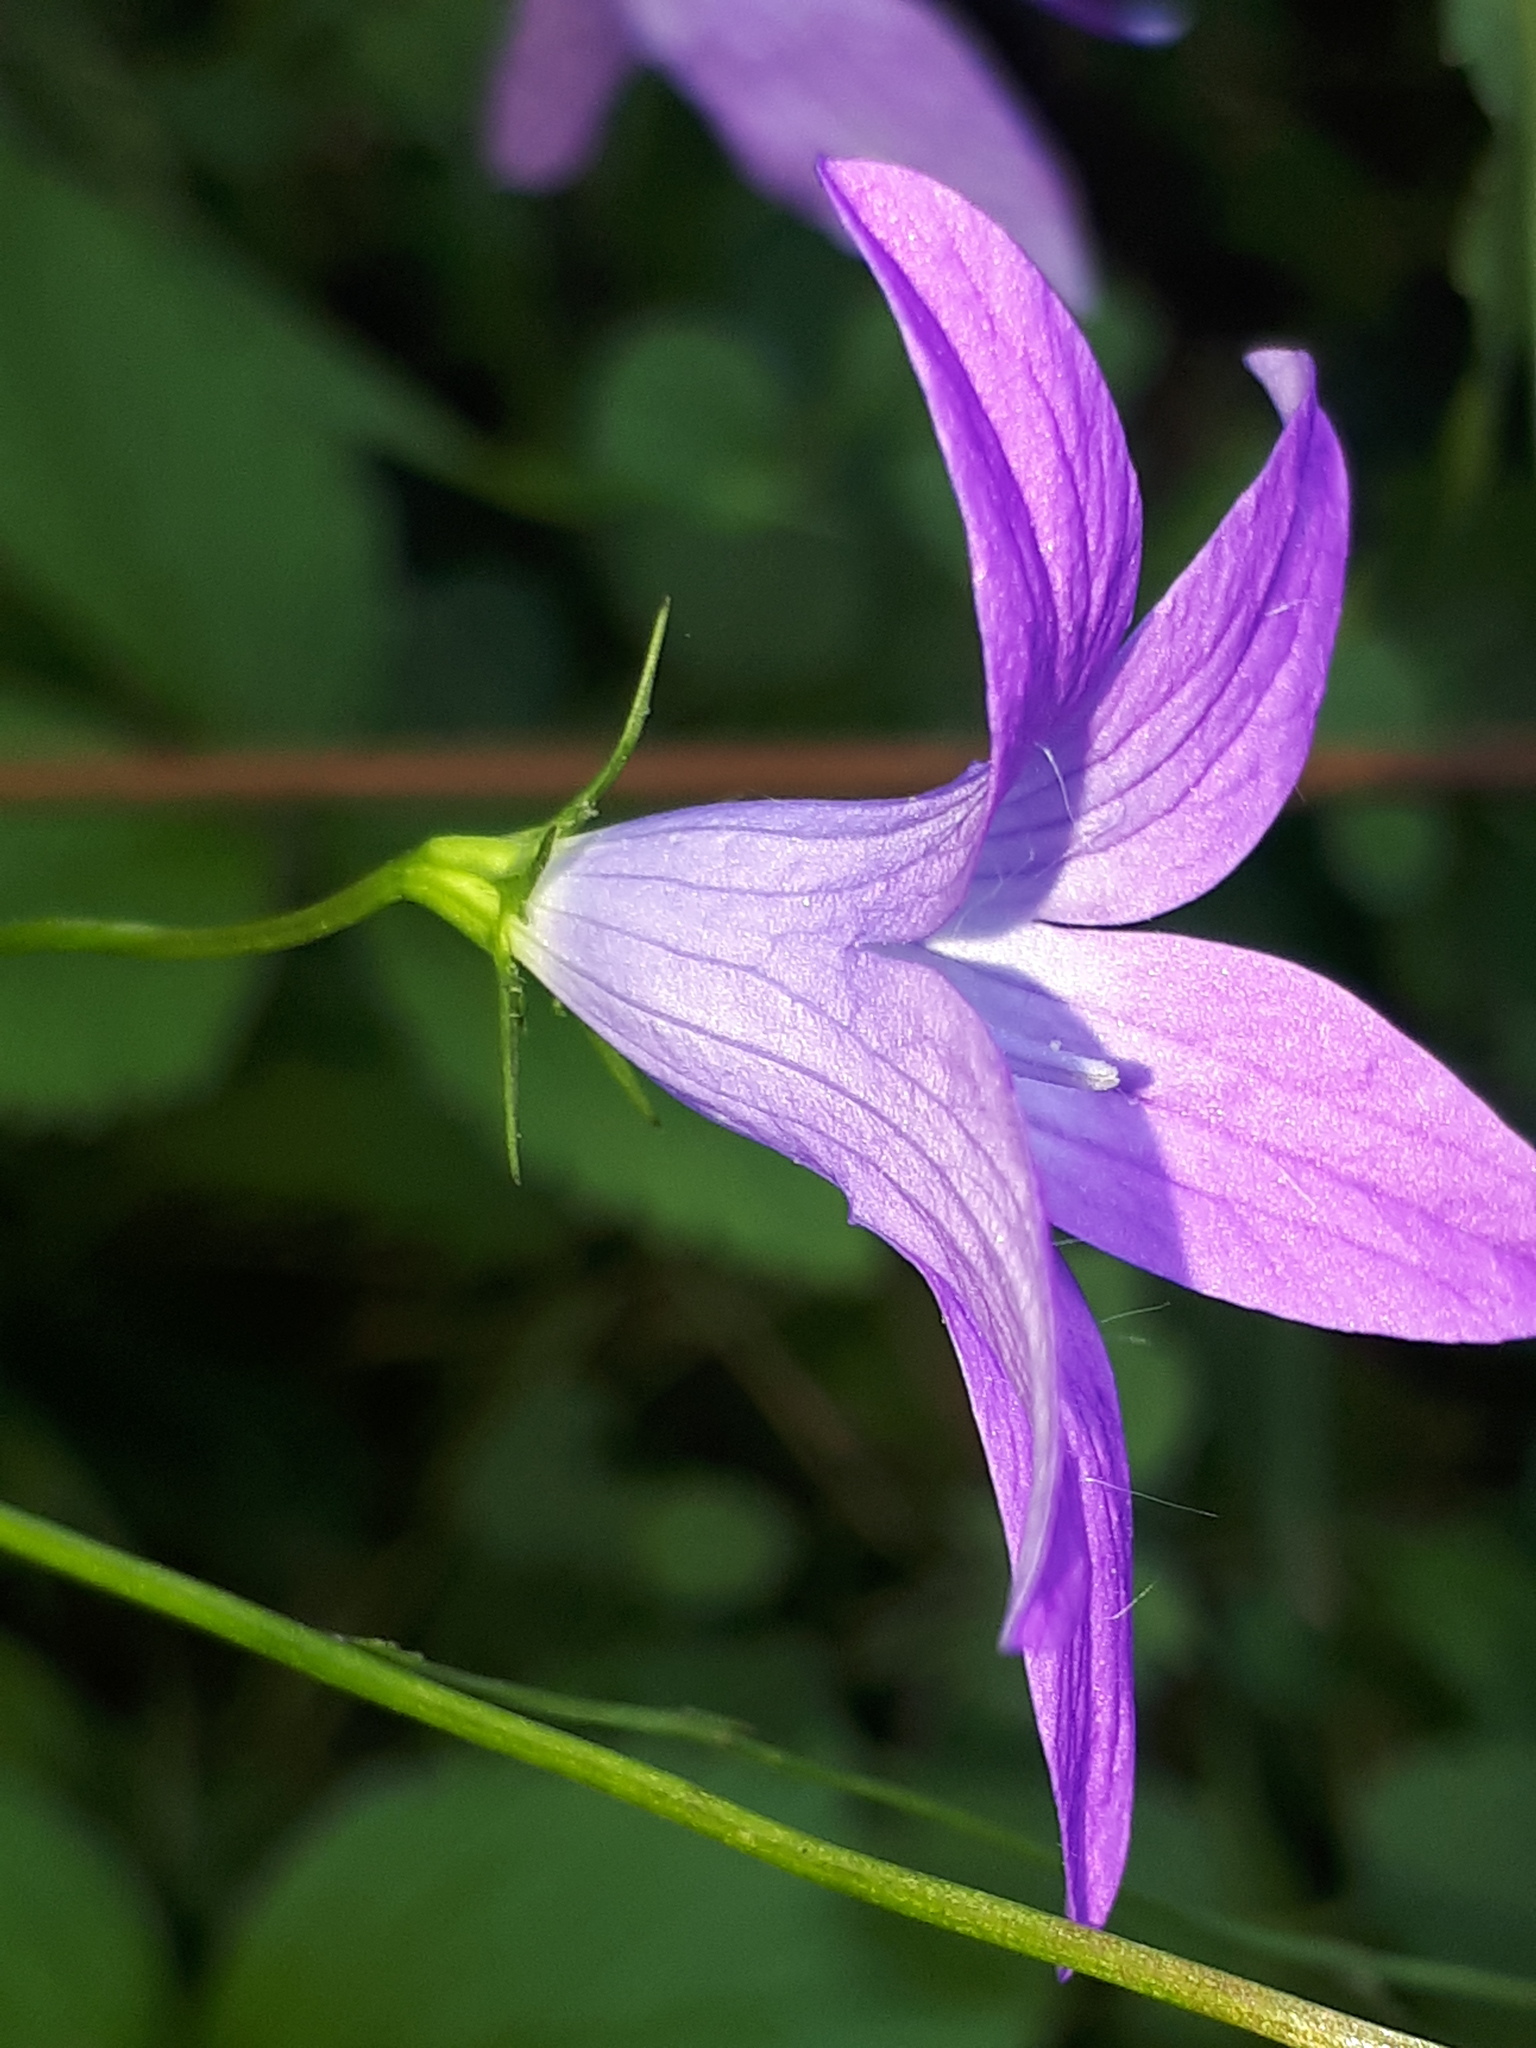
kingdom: Plantae
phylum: Tracheophyta
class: Magnoliopsida
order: Asterales
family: Campanulaceae
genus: Campanula
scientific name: Campanula patula
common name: Spreading bellflower
